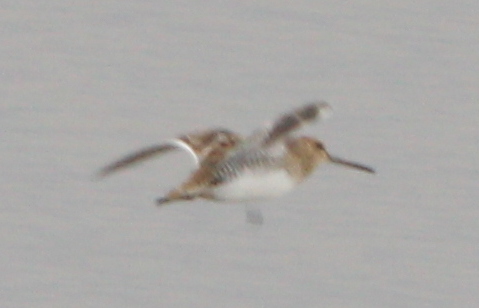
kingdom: Animalia
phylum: Chordata
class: Aves
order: Charadriiformes
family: Scolopacidae
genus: Gallinago
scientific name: Gallinago gallinago
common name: Common snipe
